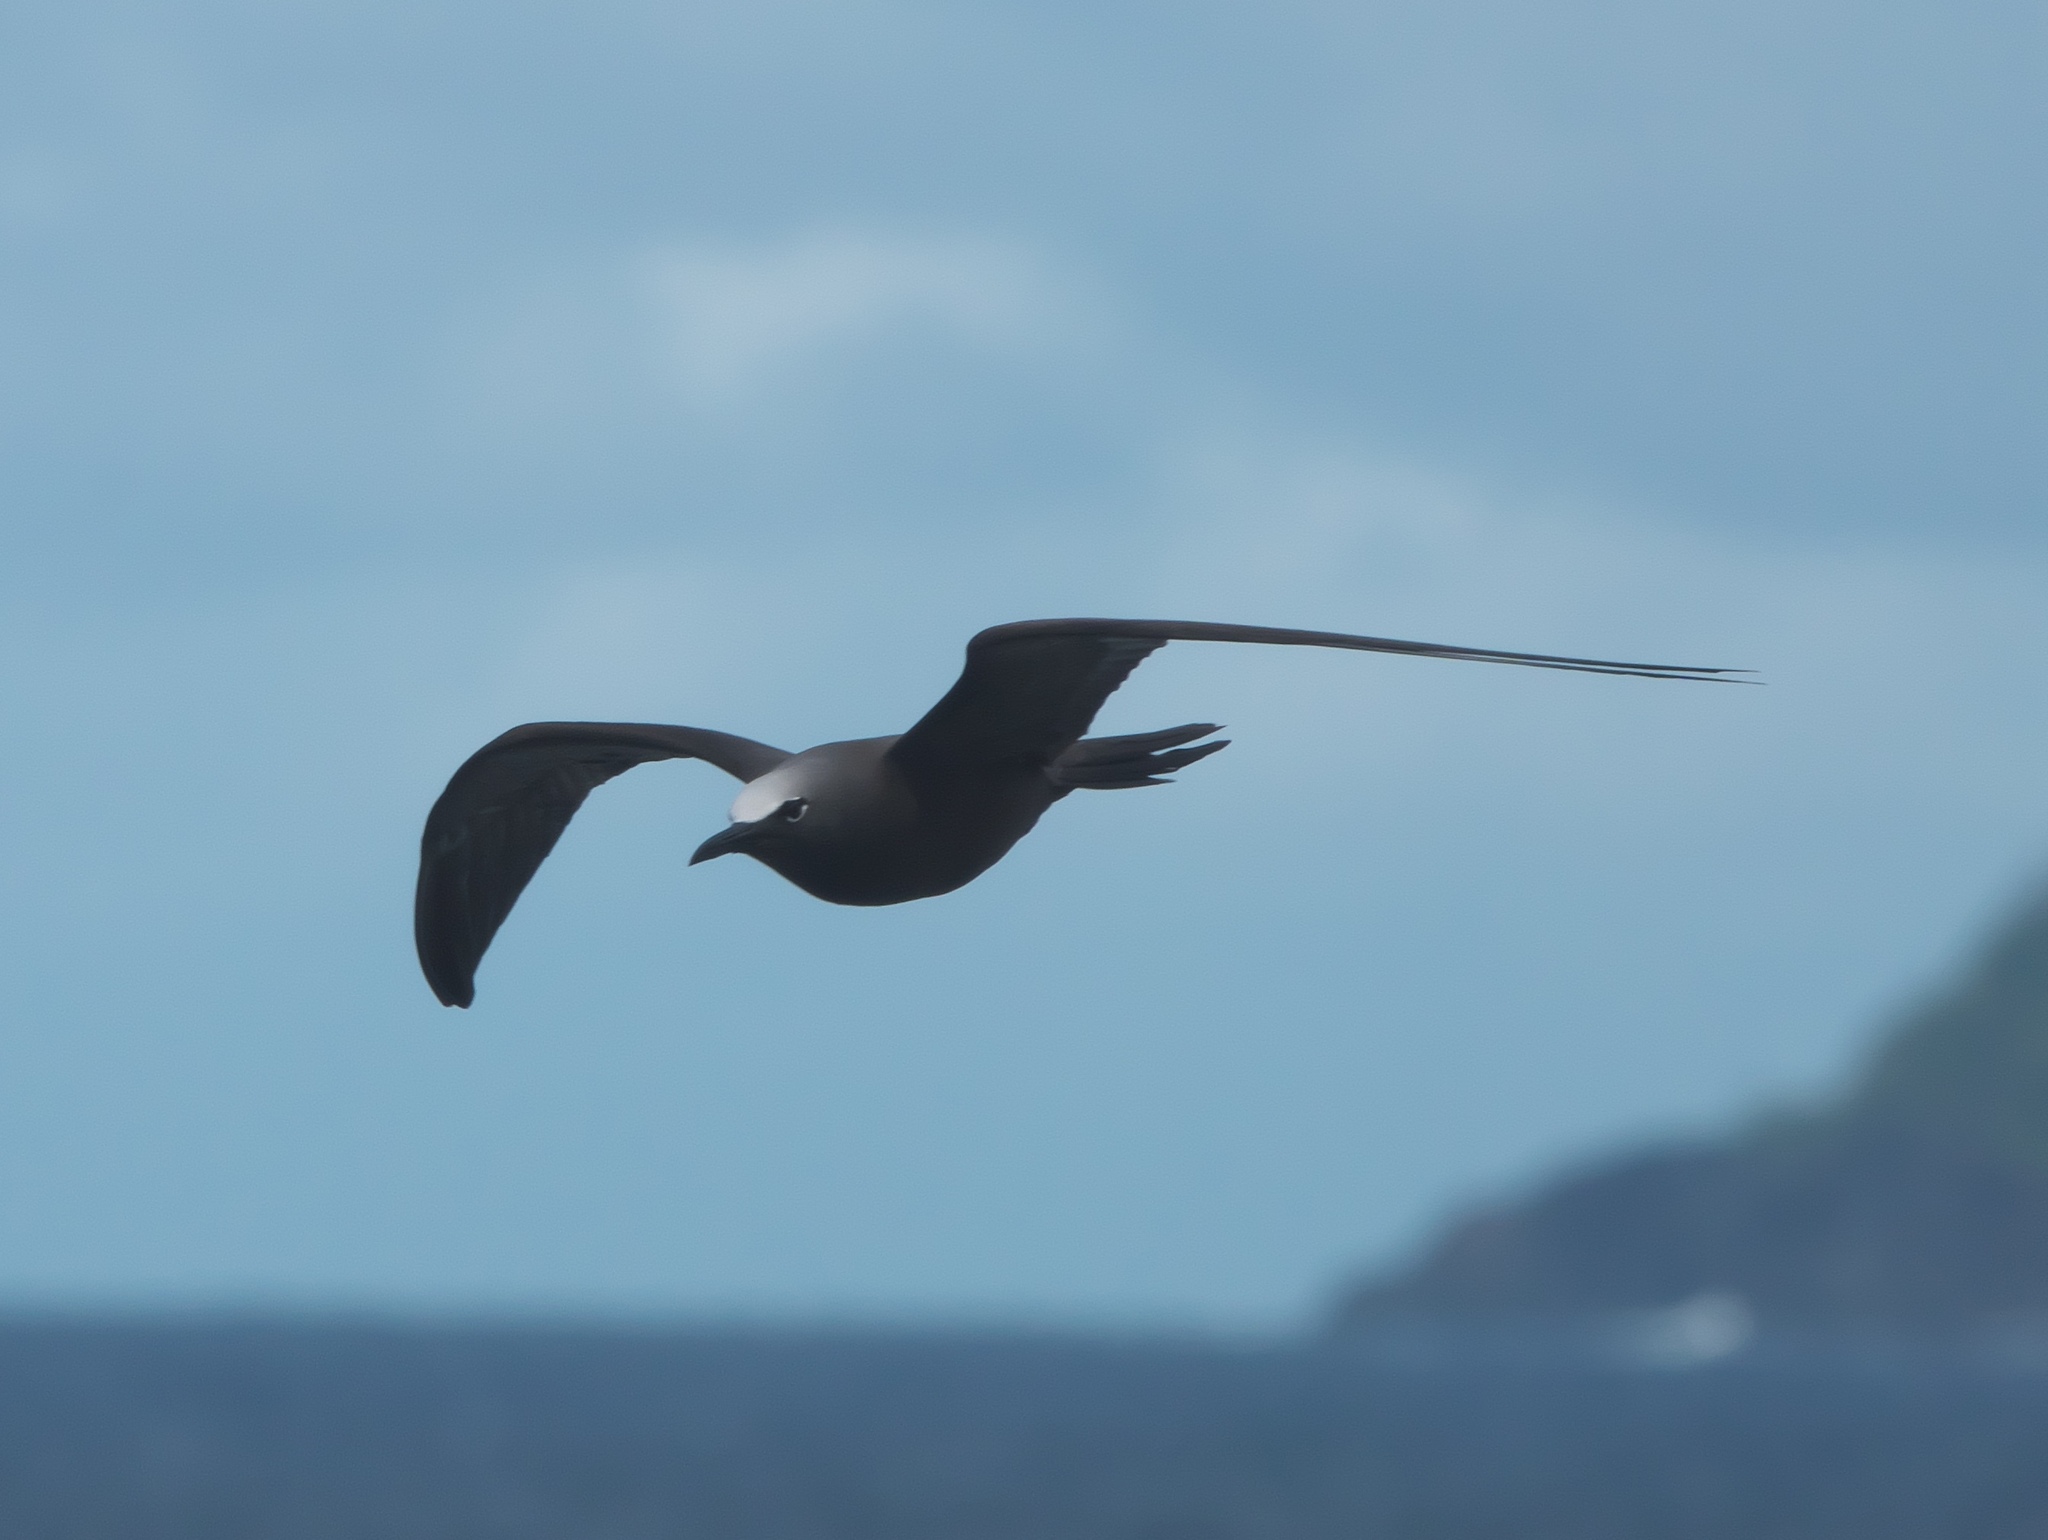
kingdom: Animalia
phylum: Chordata
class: Aves
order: Charadriiformes
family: Laridae
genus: Anous
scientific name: Anous stolidus
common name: Brown noddy
